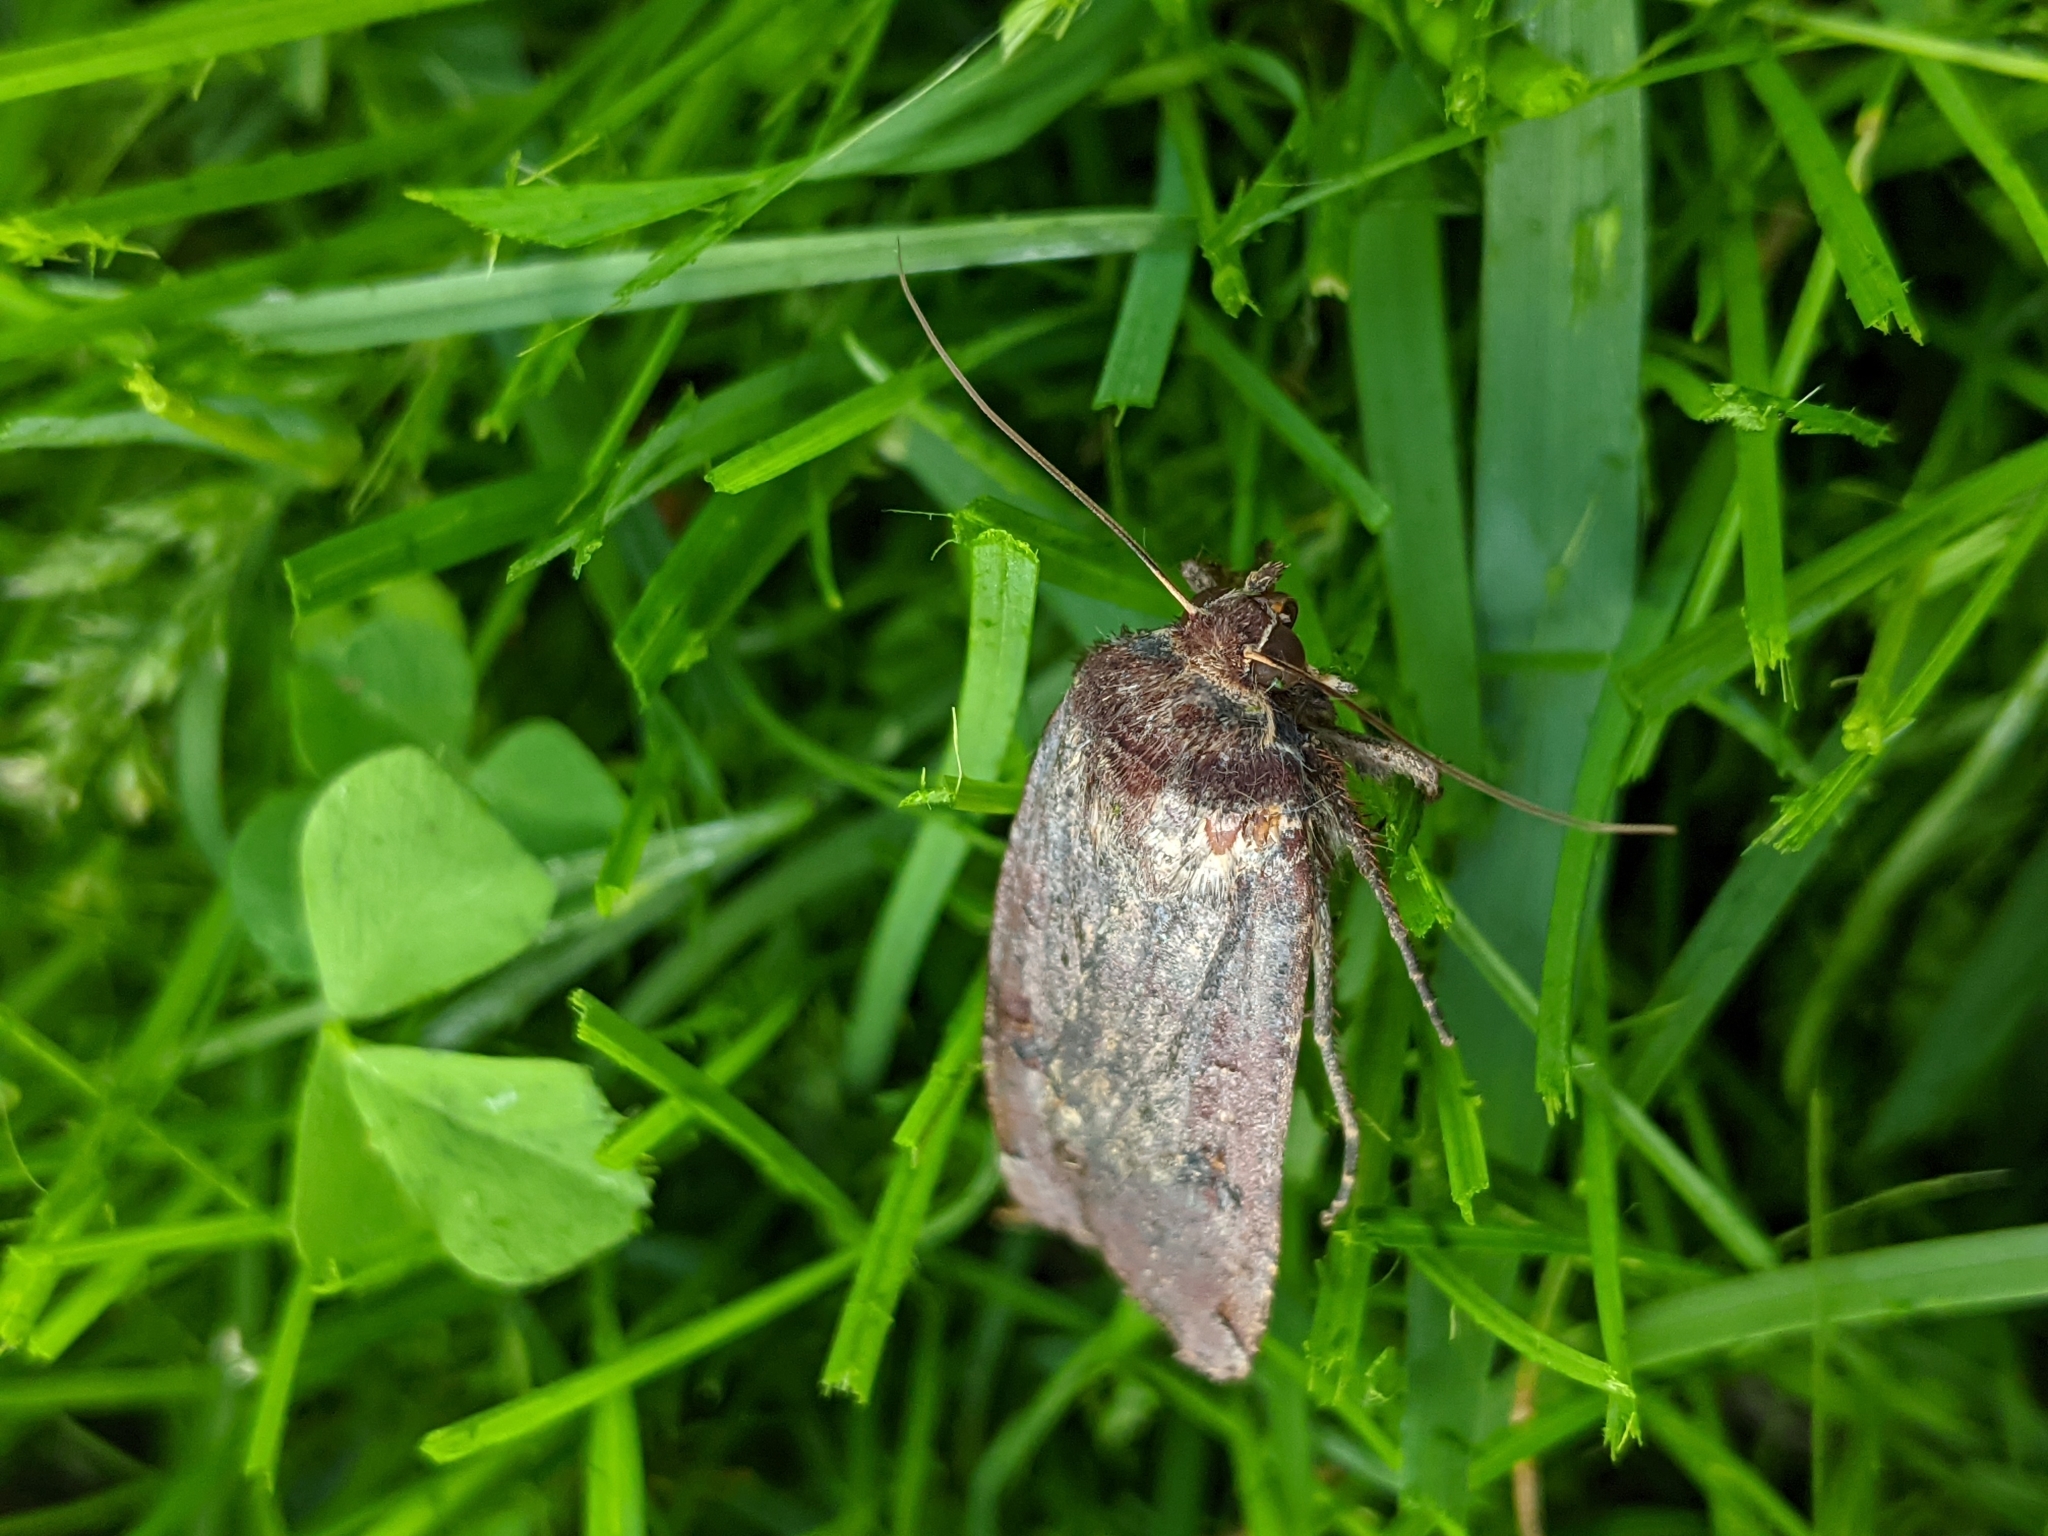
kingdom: Animalia
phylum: Arthropoda
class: Insecta
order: Lepidoptera
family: Noctuidae
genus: Noctua
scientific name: Noctua pronuba
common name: Large yellow underwing
